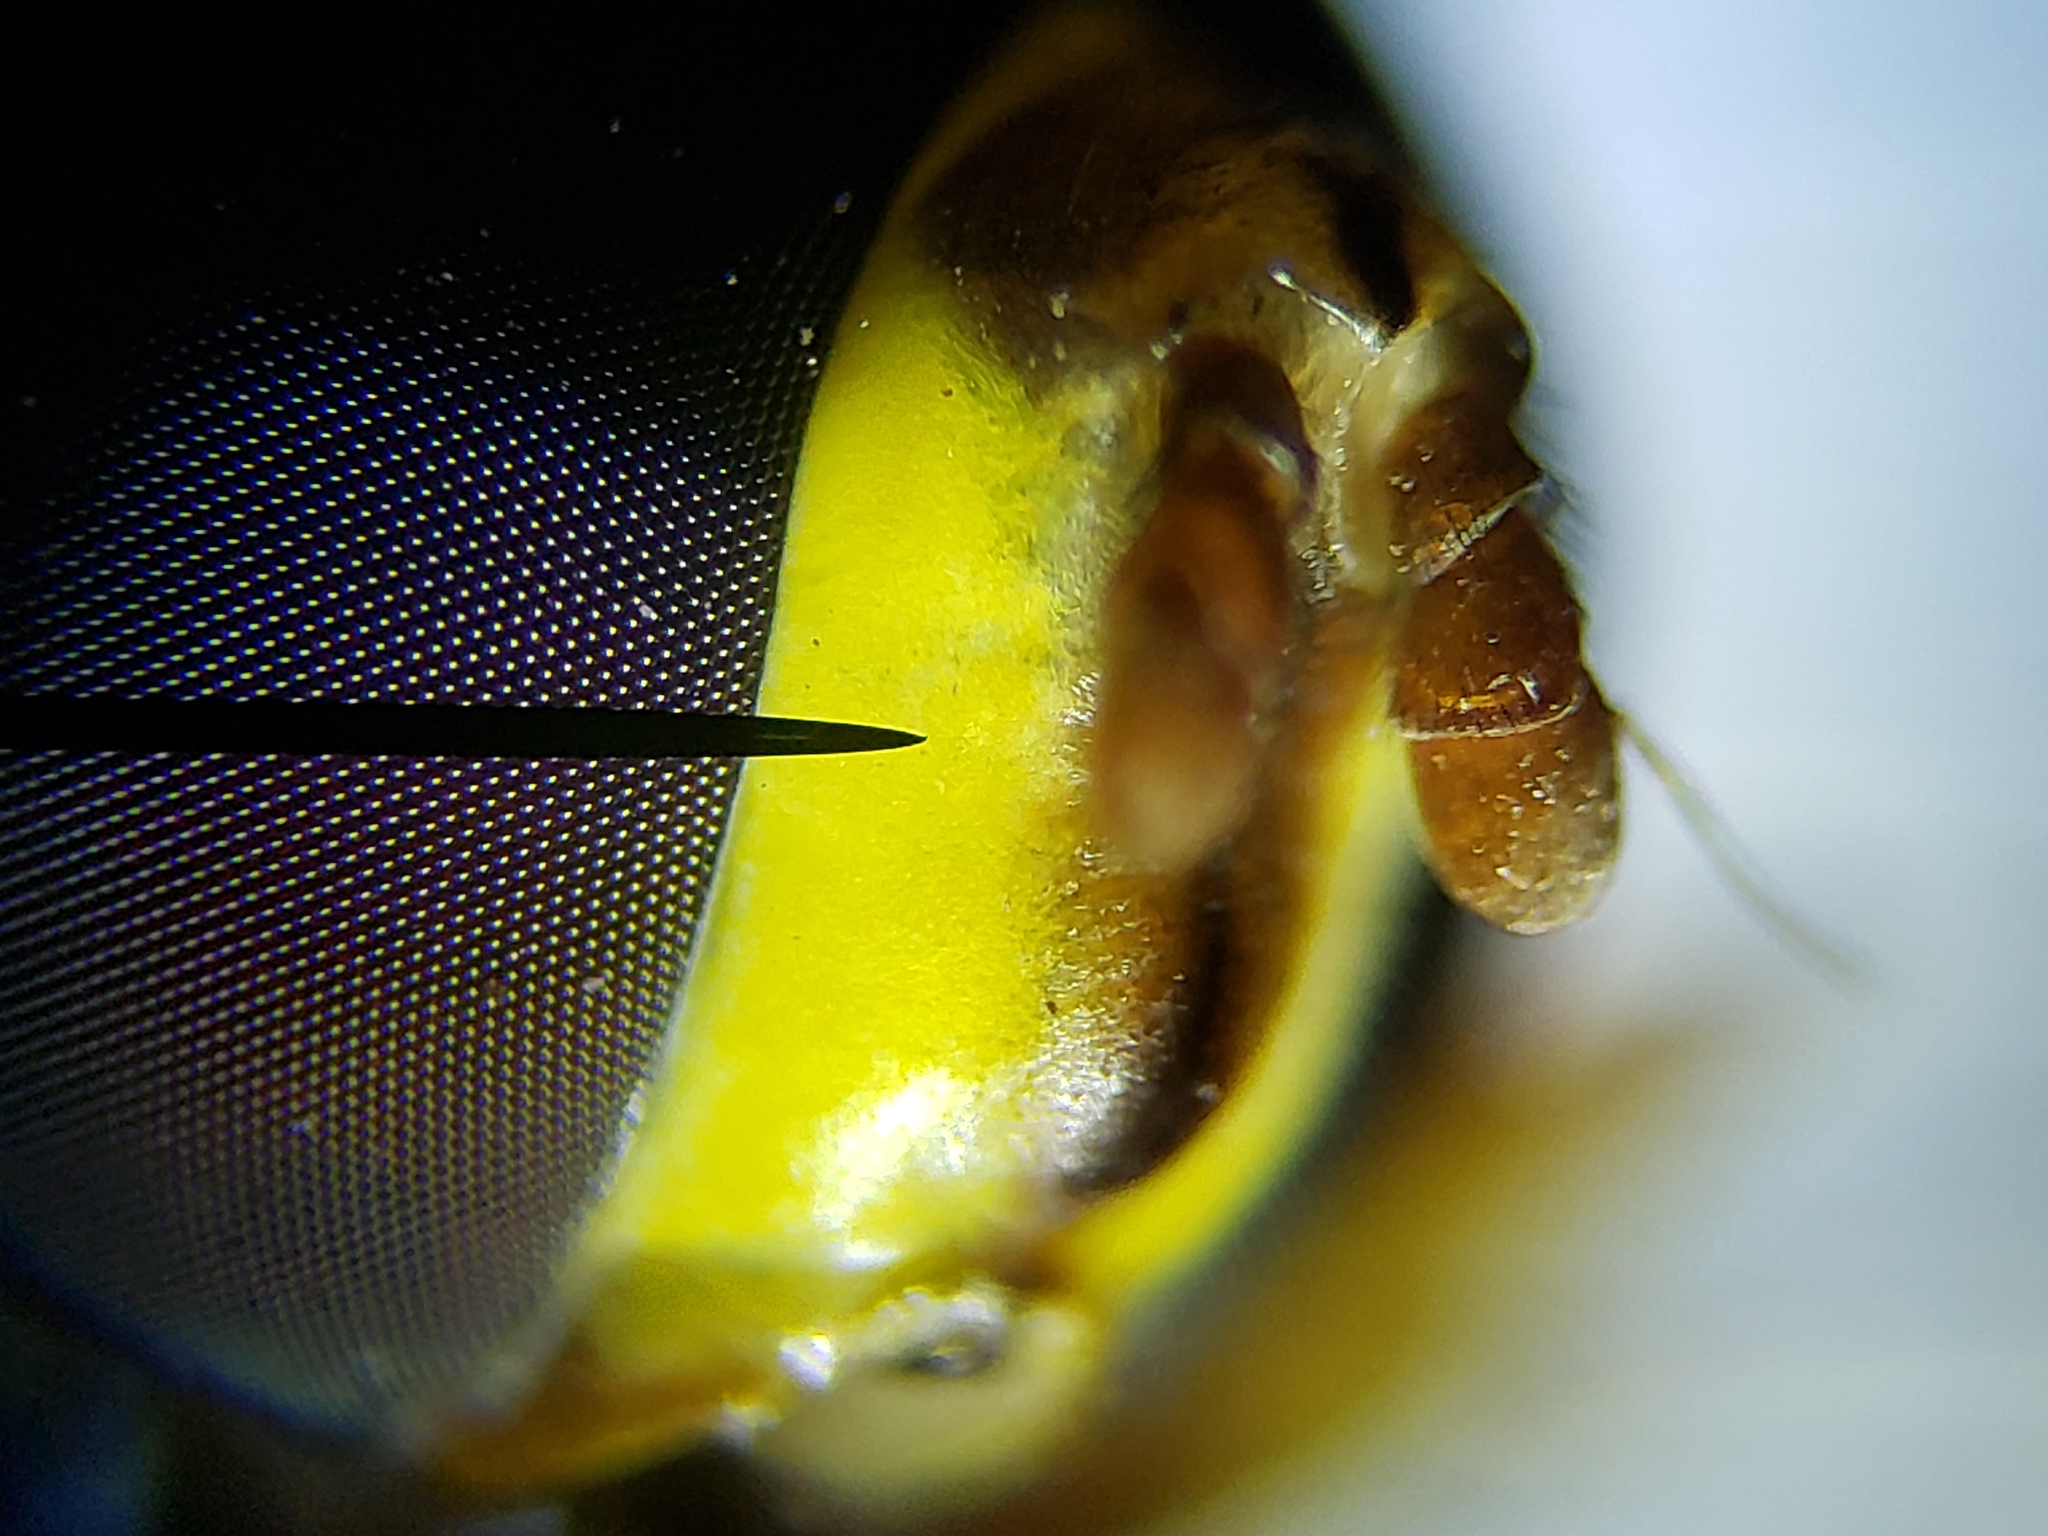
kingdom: Animalia
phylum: Arthropoda
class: Insecta
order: Diptera
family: Syrphidae
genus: Salpingogaster
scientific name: Salpingogaster punctifrons
